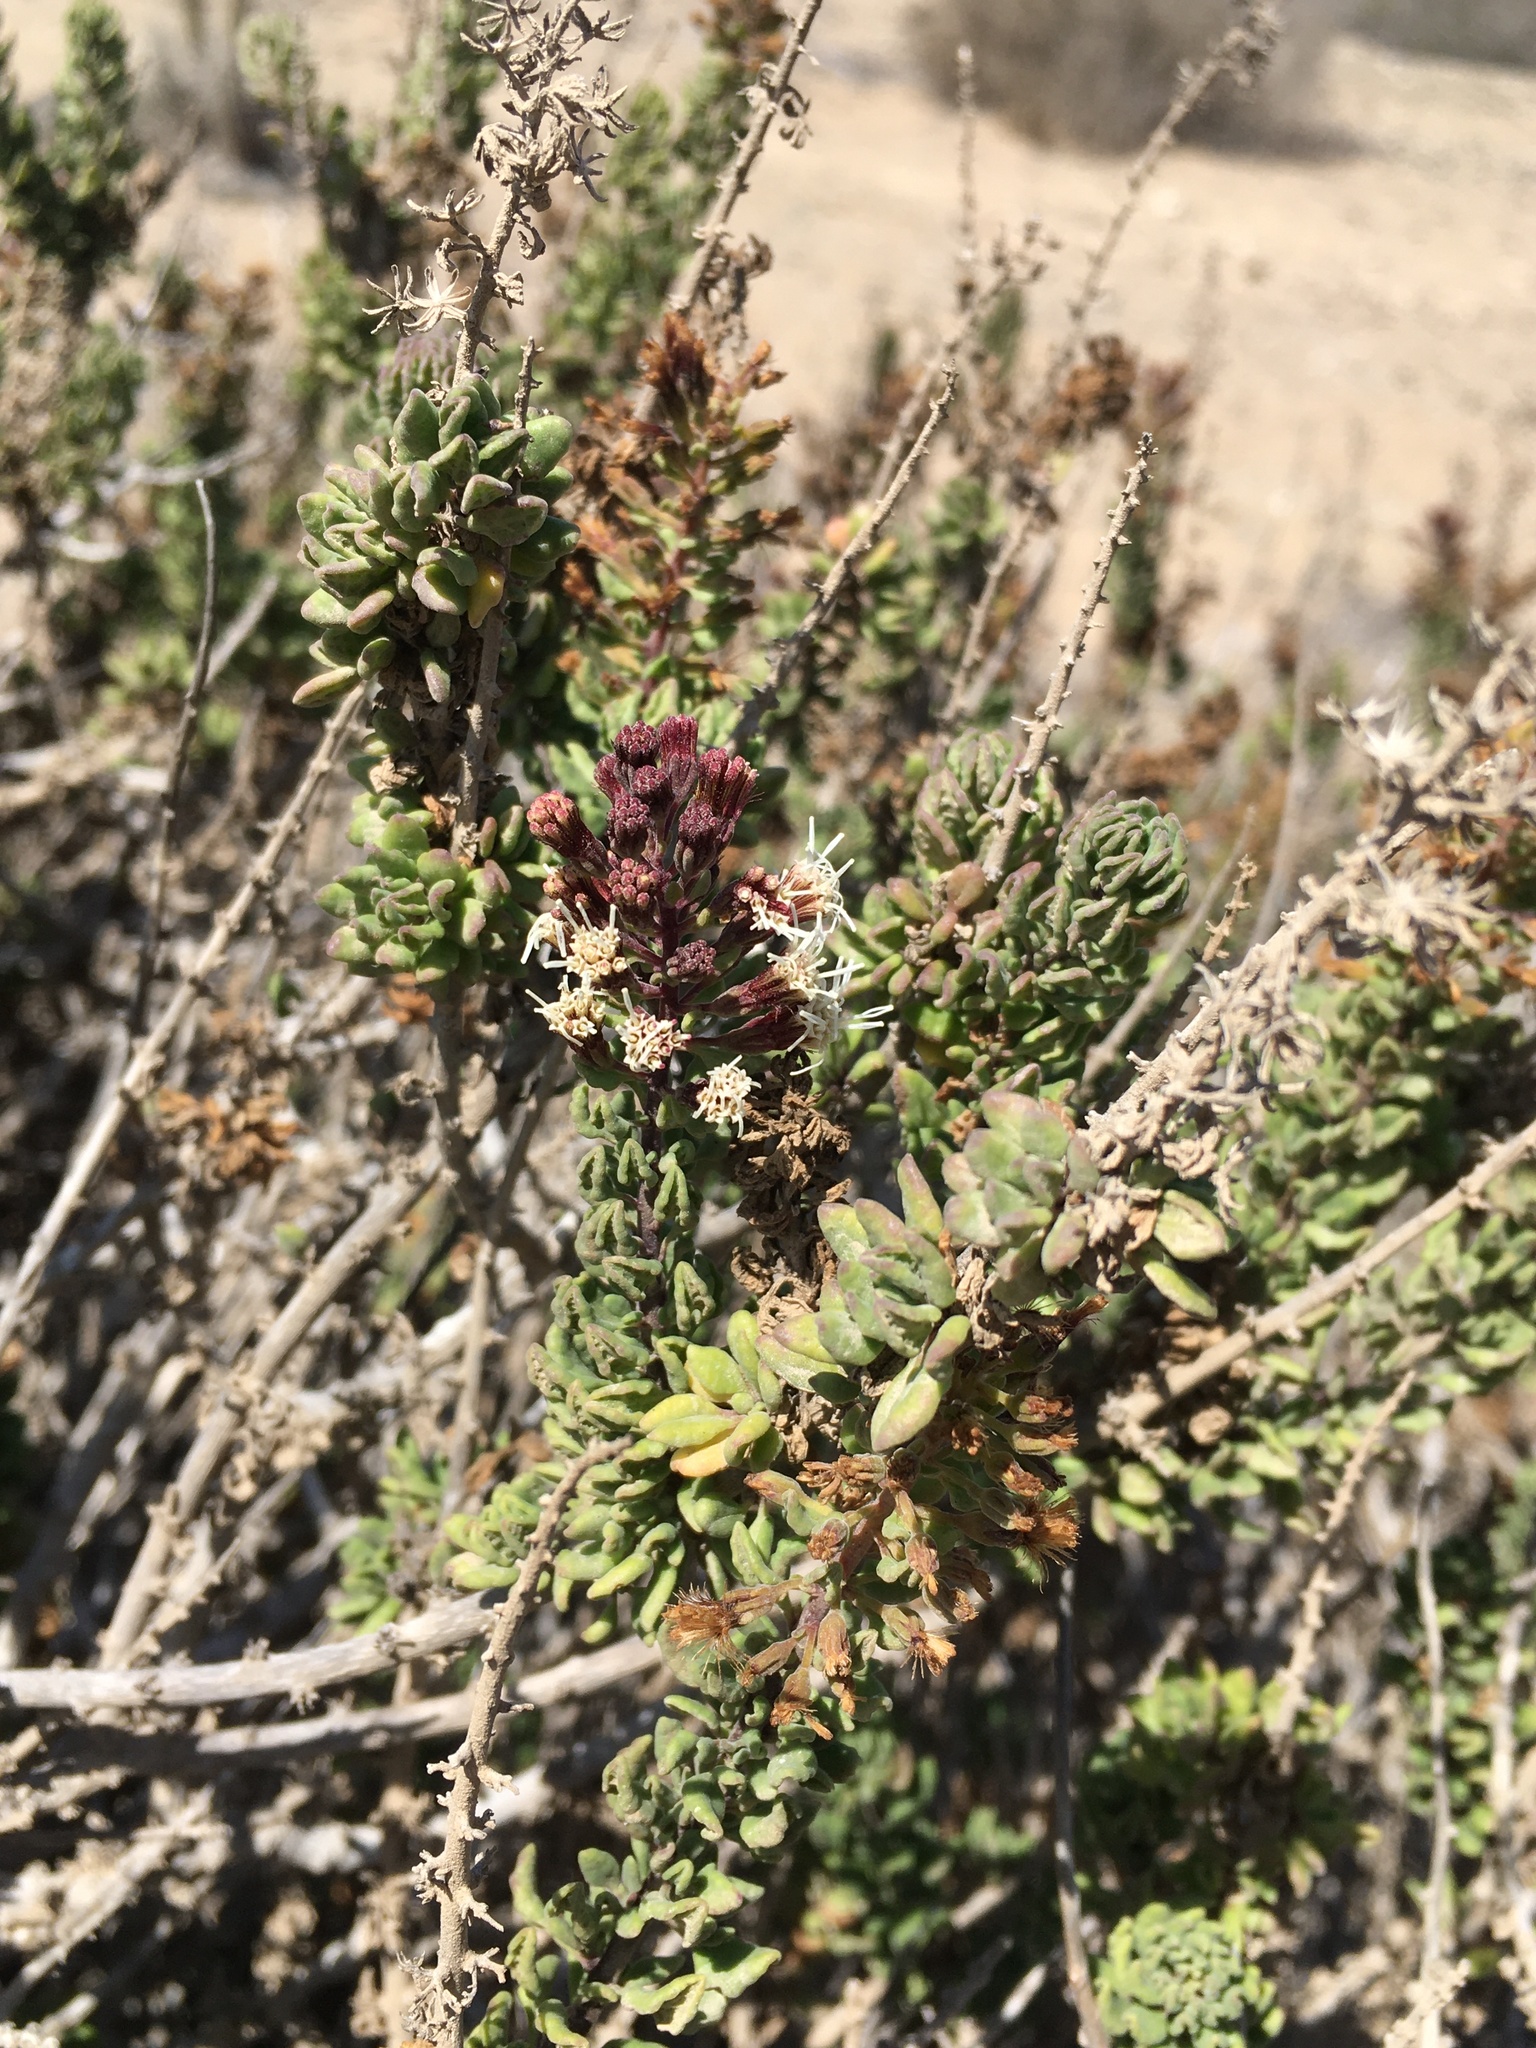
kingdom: Plantae
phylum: Tracheophyta
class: Magnoliopsida
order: Asterales
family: Asteraceae
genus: Ophryosporus
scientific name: Ophryosporus triangularis
